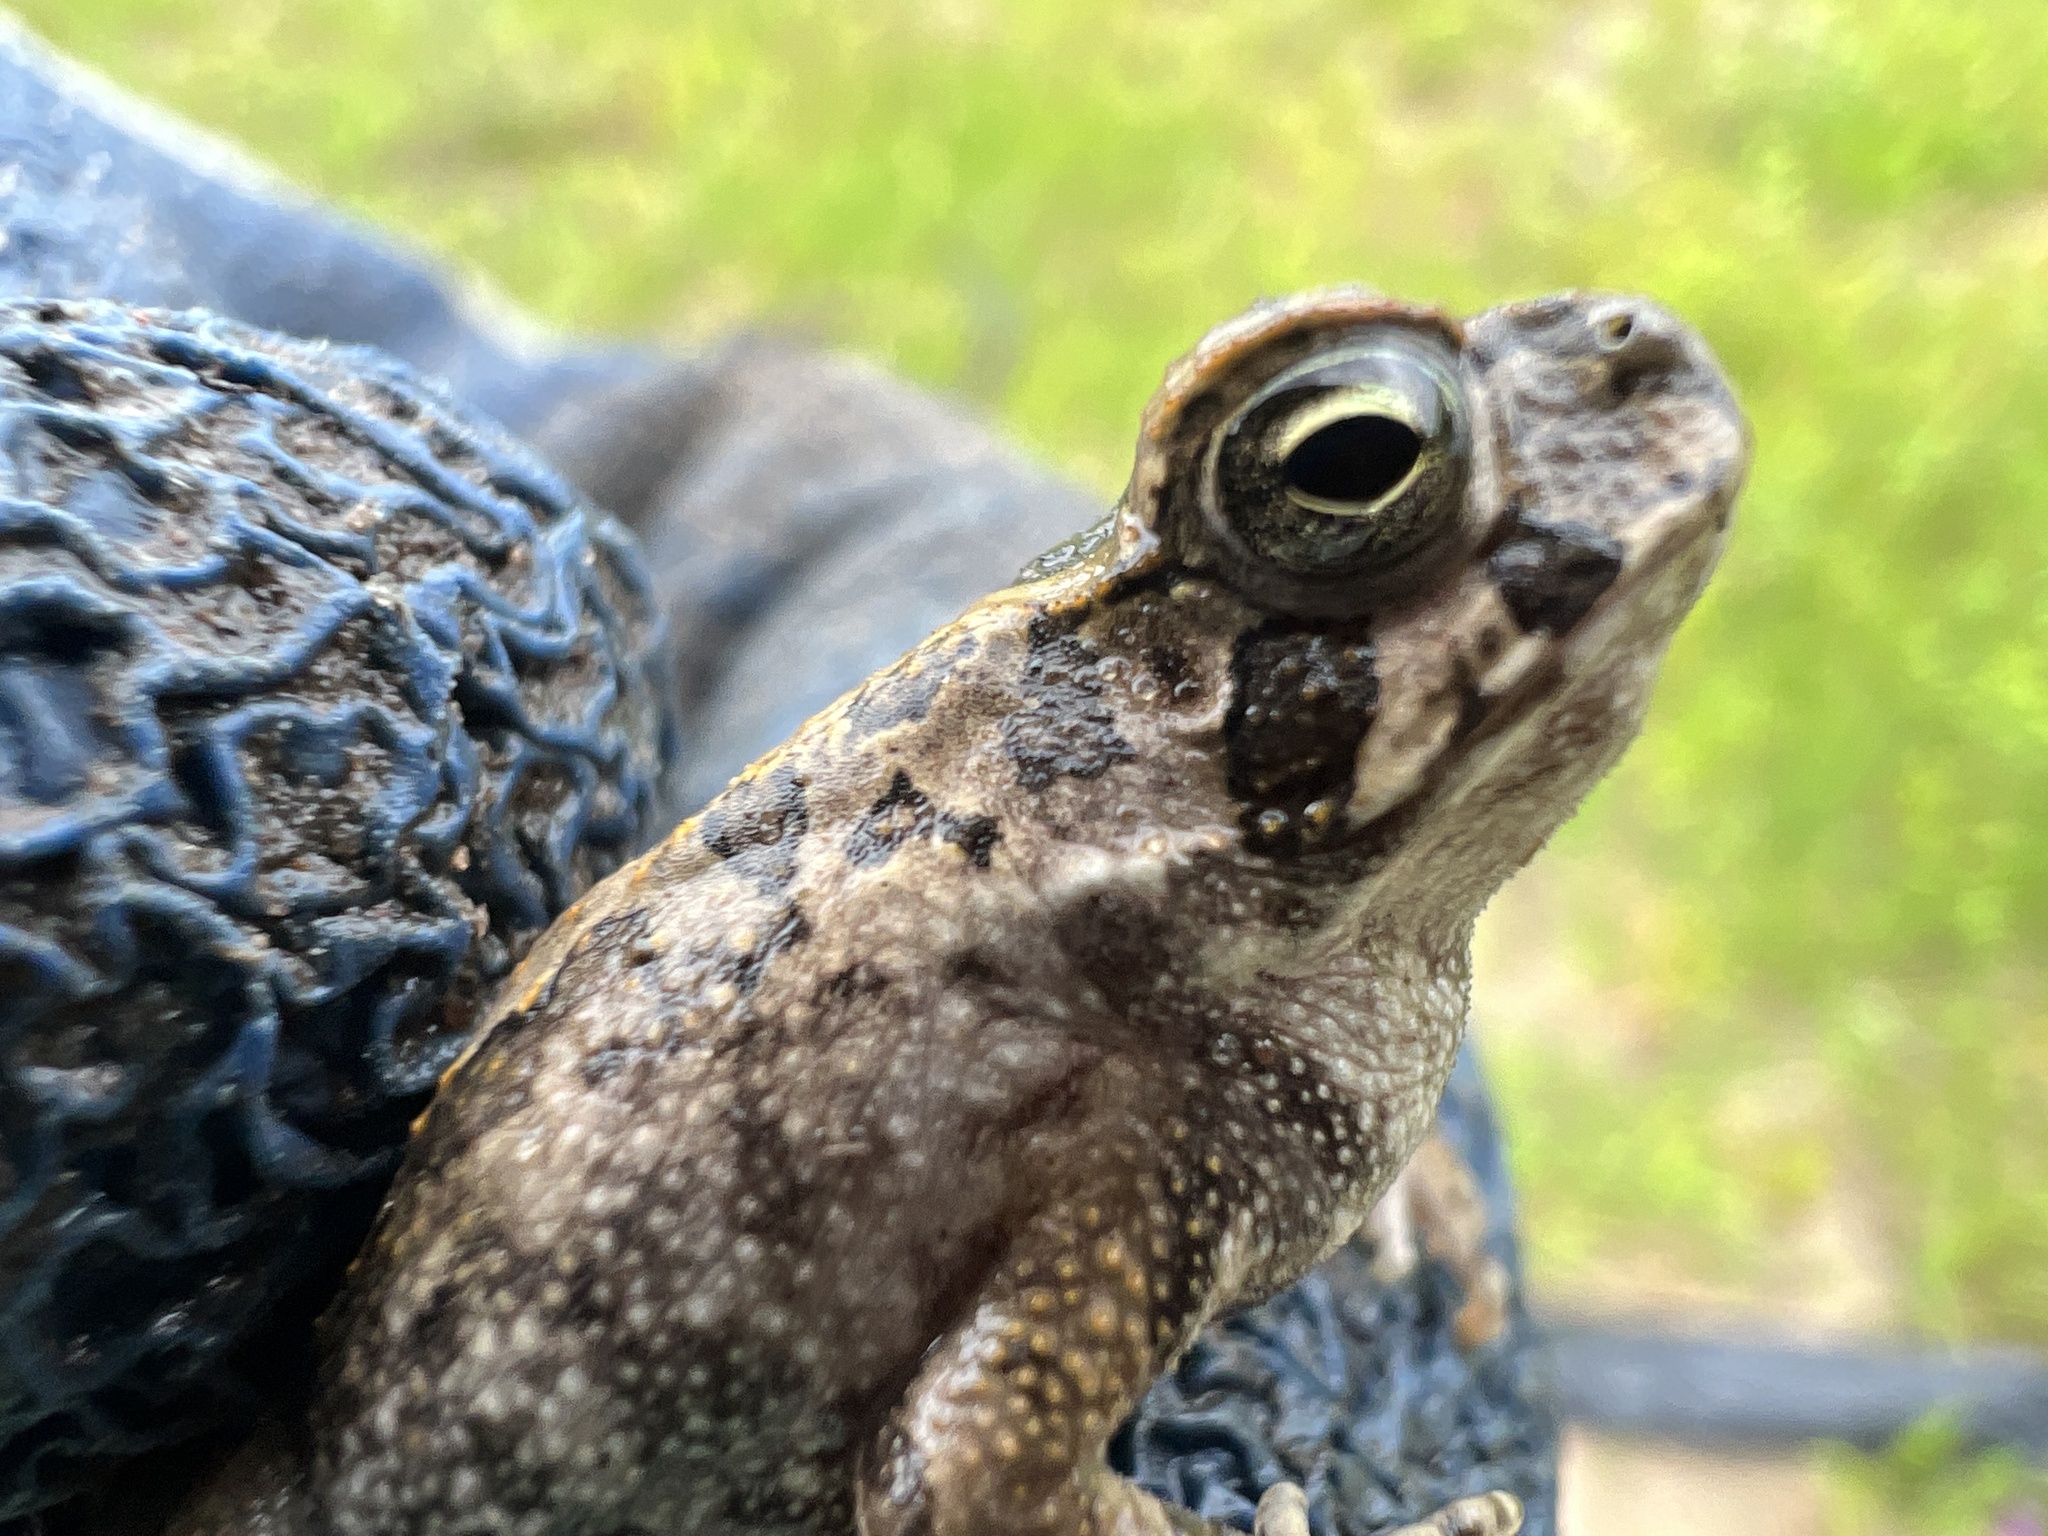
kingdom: Animalia
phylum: Chordata
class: Amphibia
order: Anura
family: Bufonidae
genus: Rhinella
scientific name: Rhinella diptycha
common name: Cope's toad
